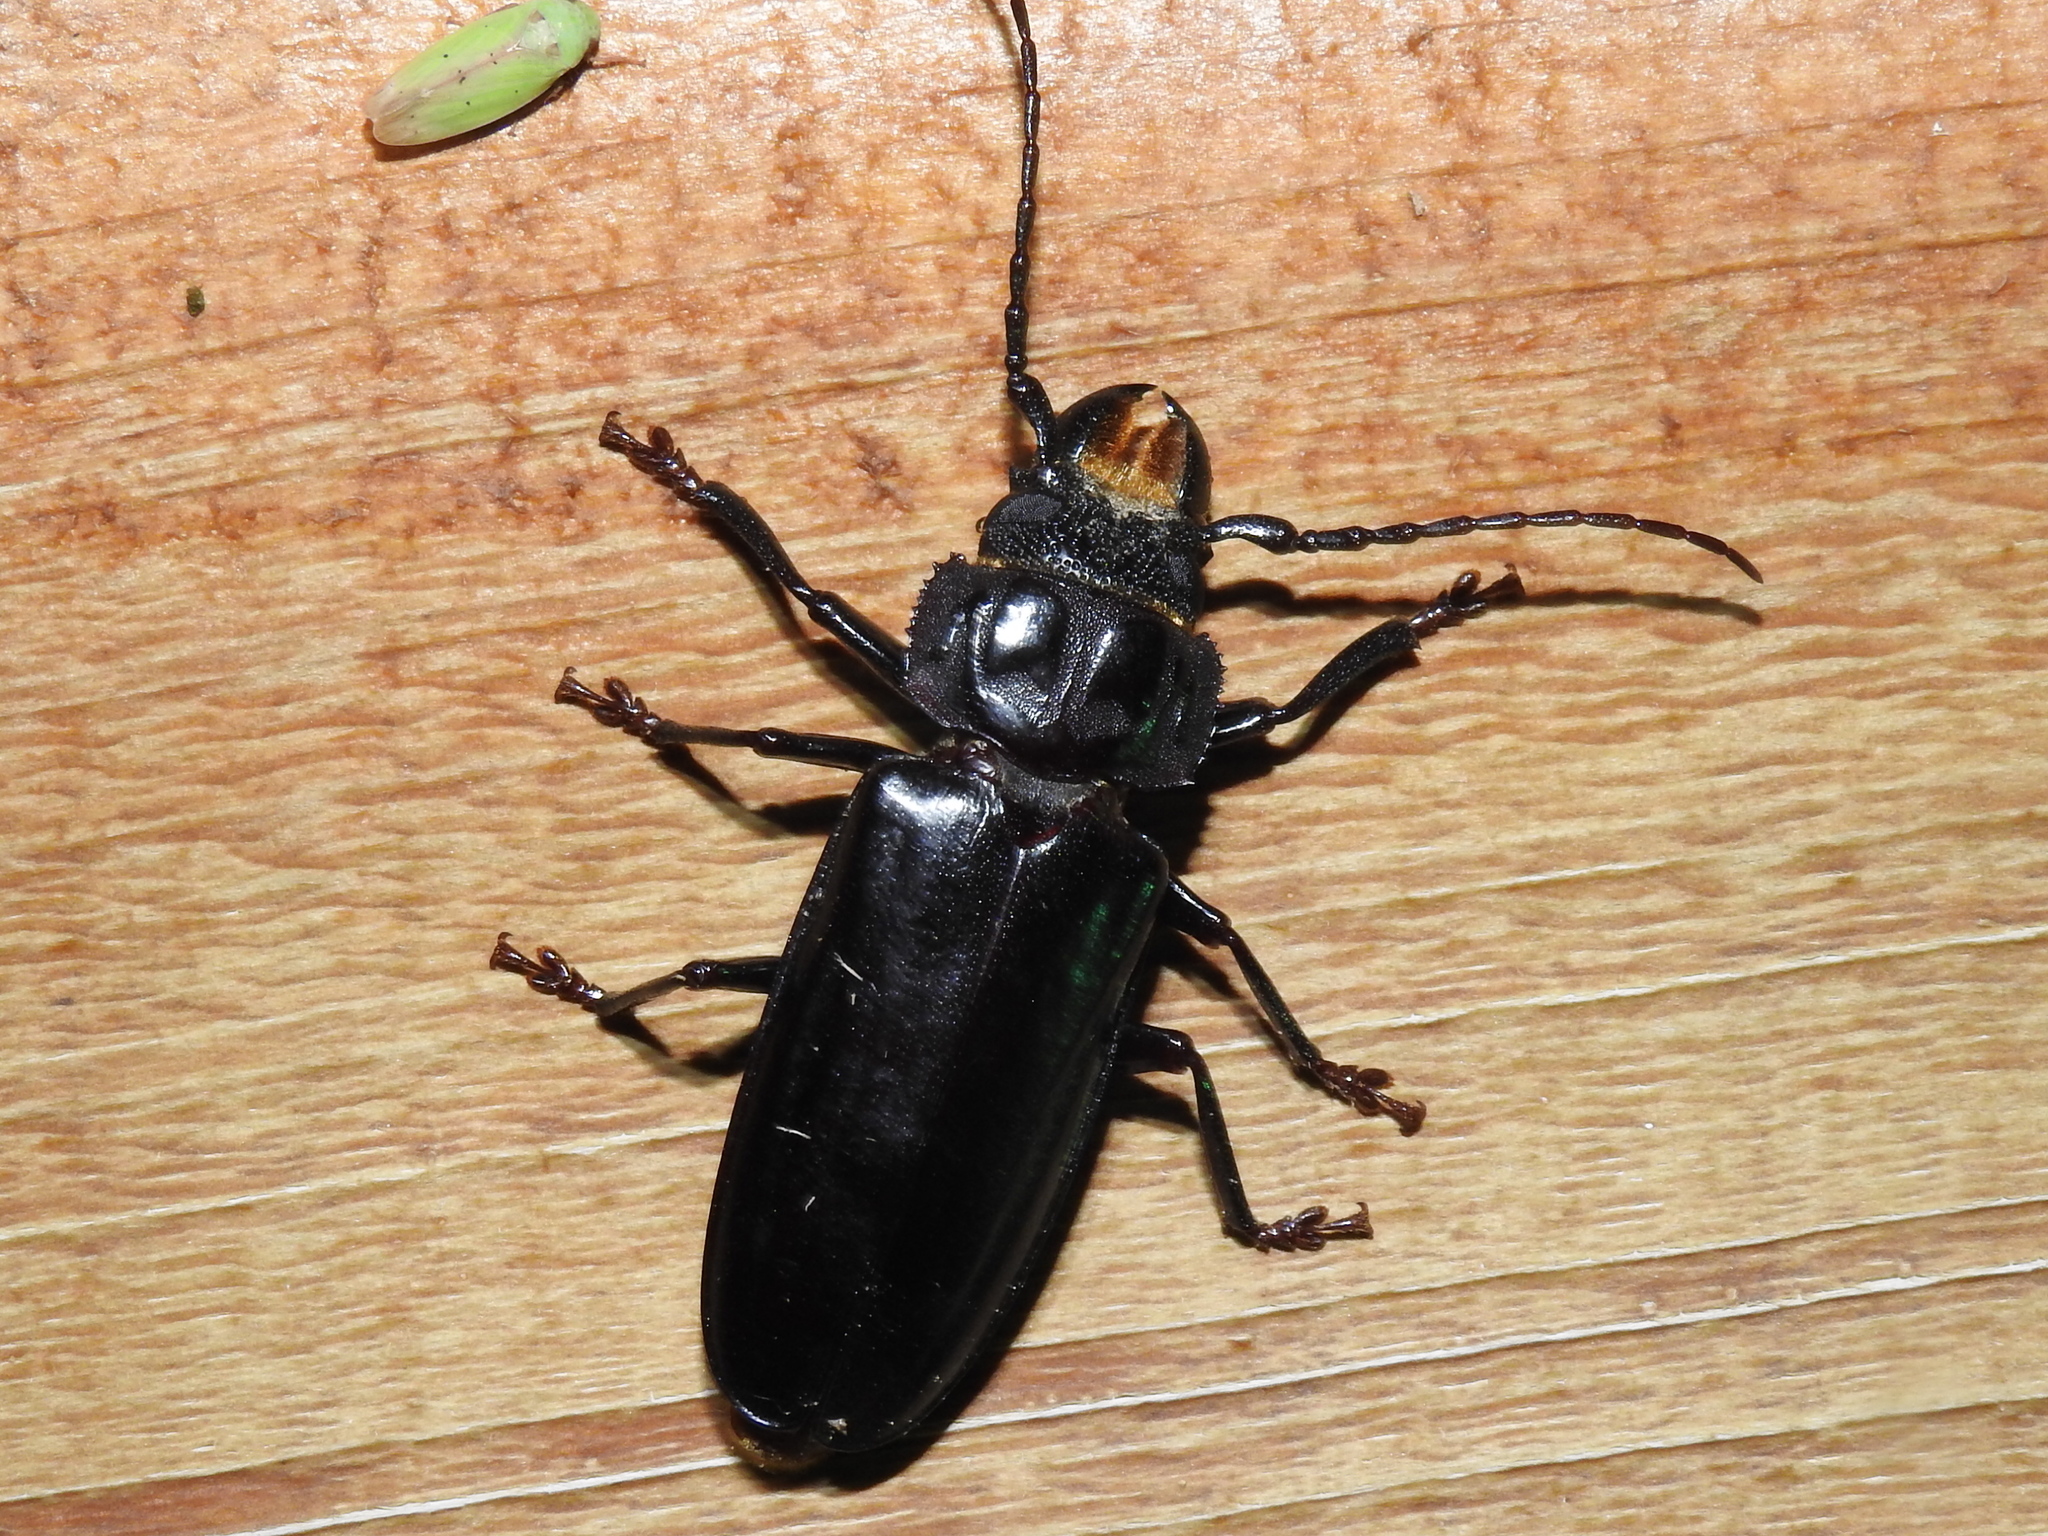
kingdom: Animalia
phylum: Arthropoda
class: Insecta
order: Coleoptera
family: Cerambycidae
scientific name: Cerambycidae
